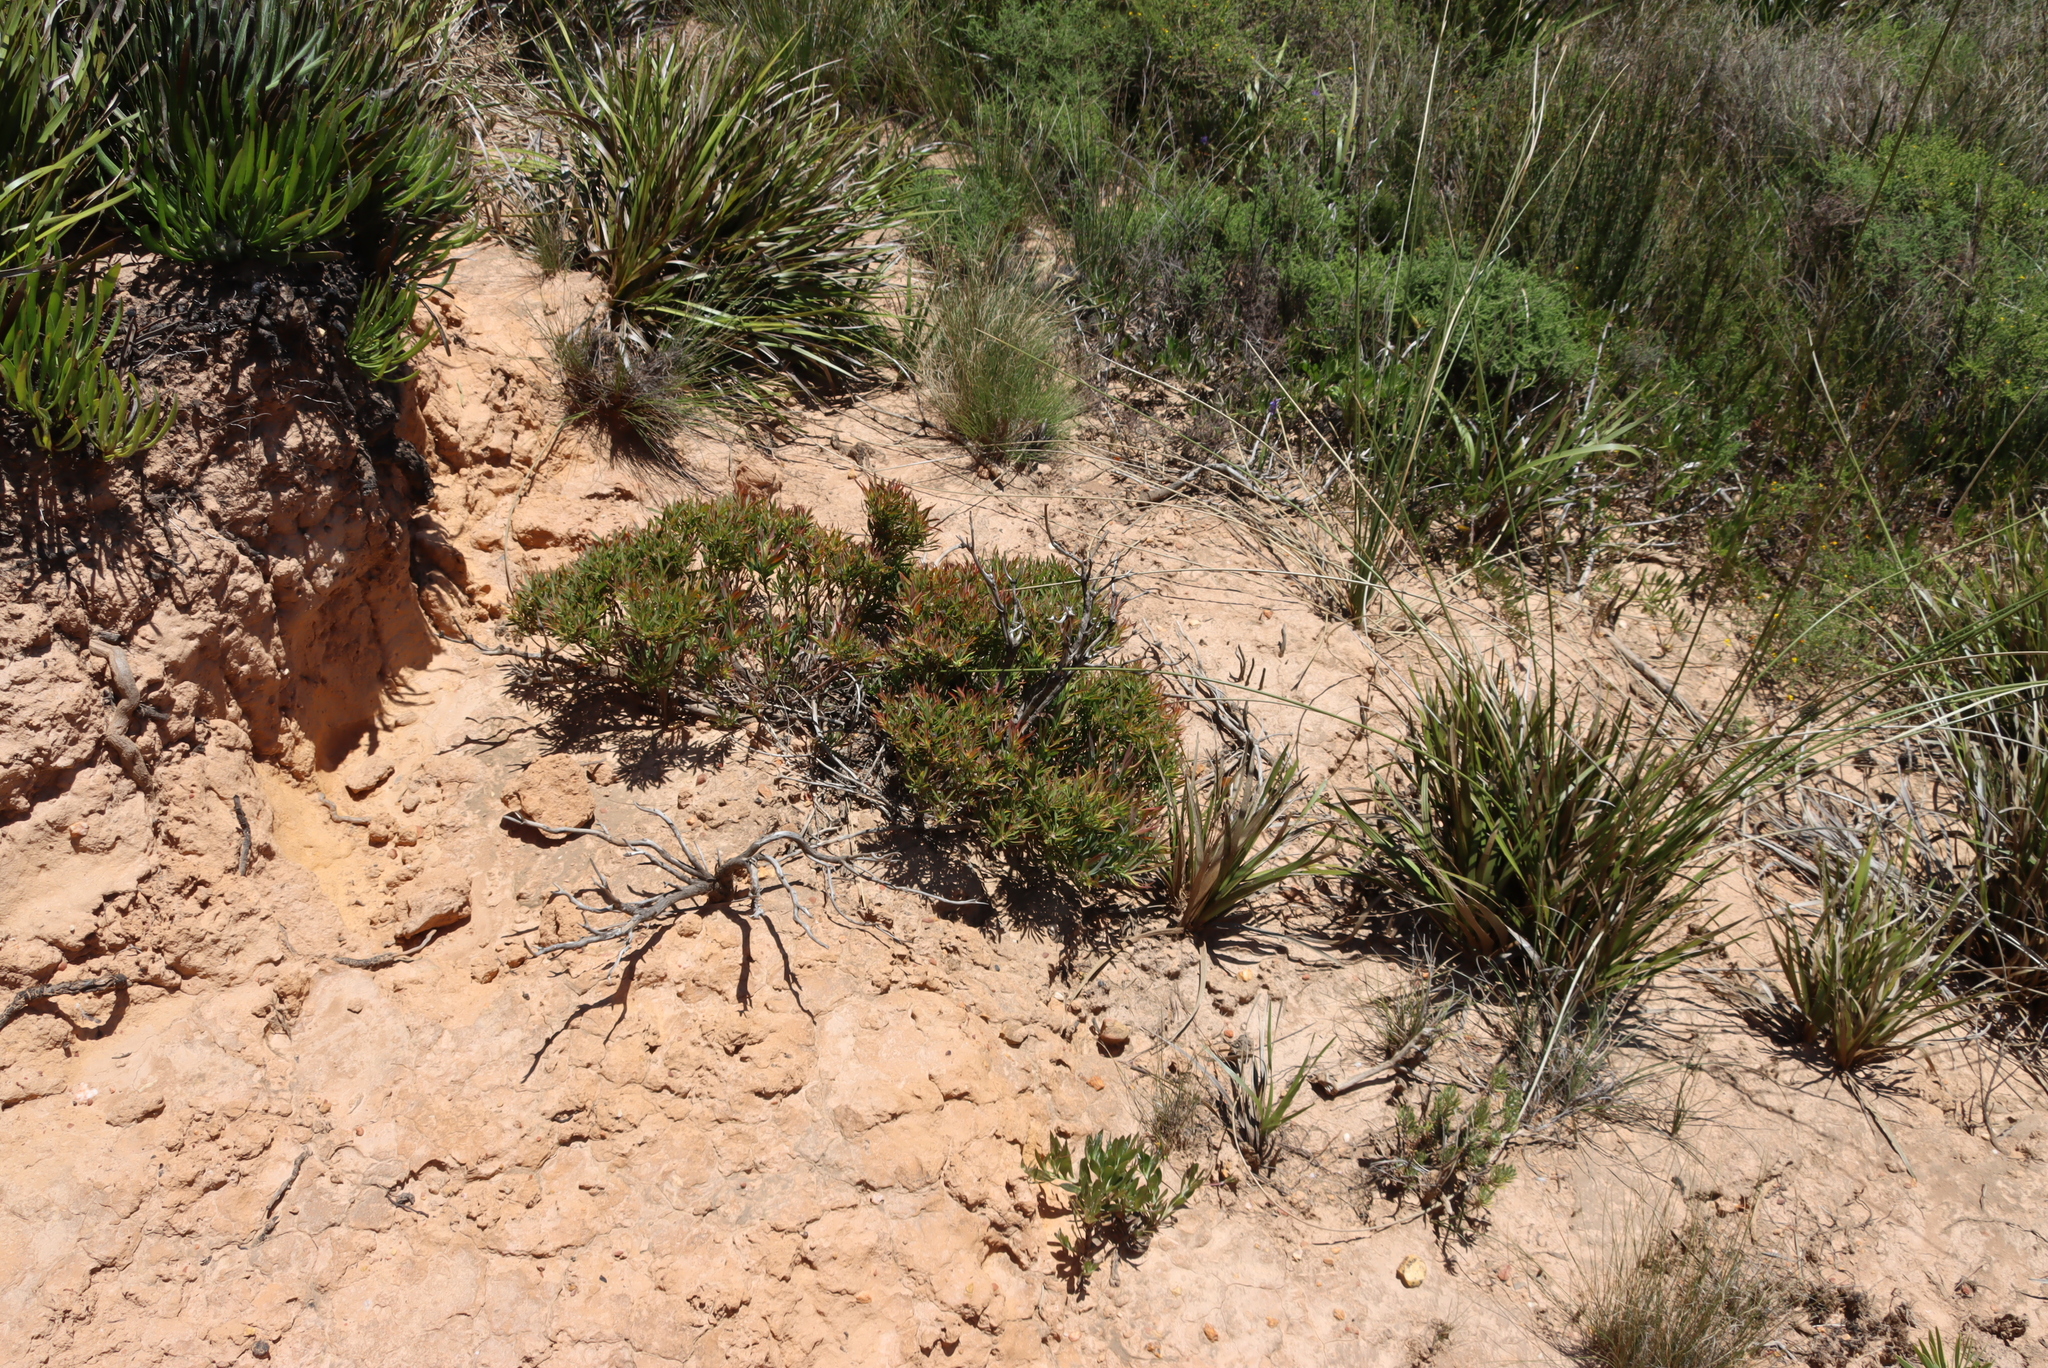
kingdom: Plantae
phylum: Tracheophyta
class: Magnoliopsida
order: Proteales
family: Proteaceae
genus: Leucadendron
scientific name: Leucadendron spissifolium
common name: Spear-leaf conebush
